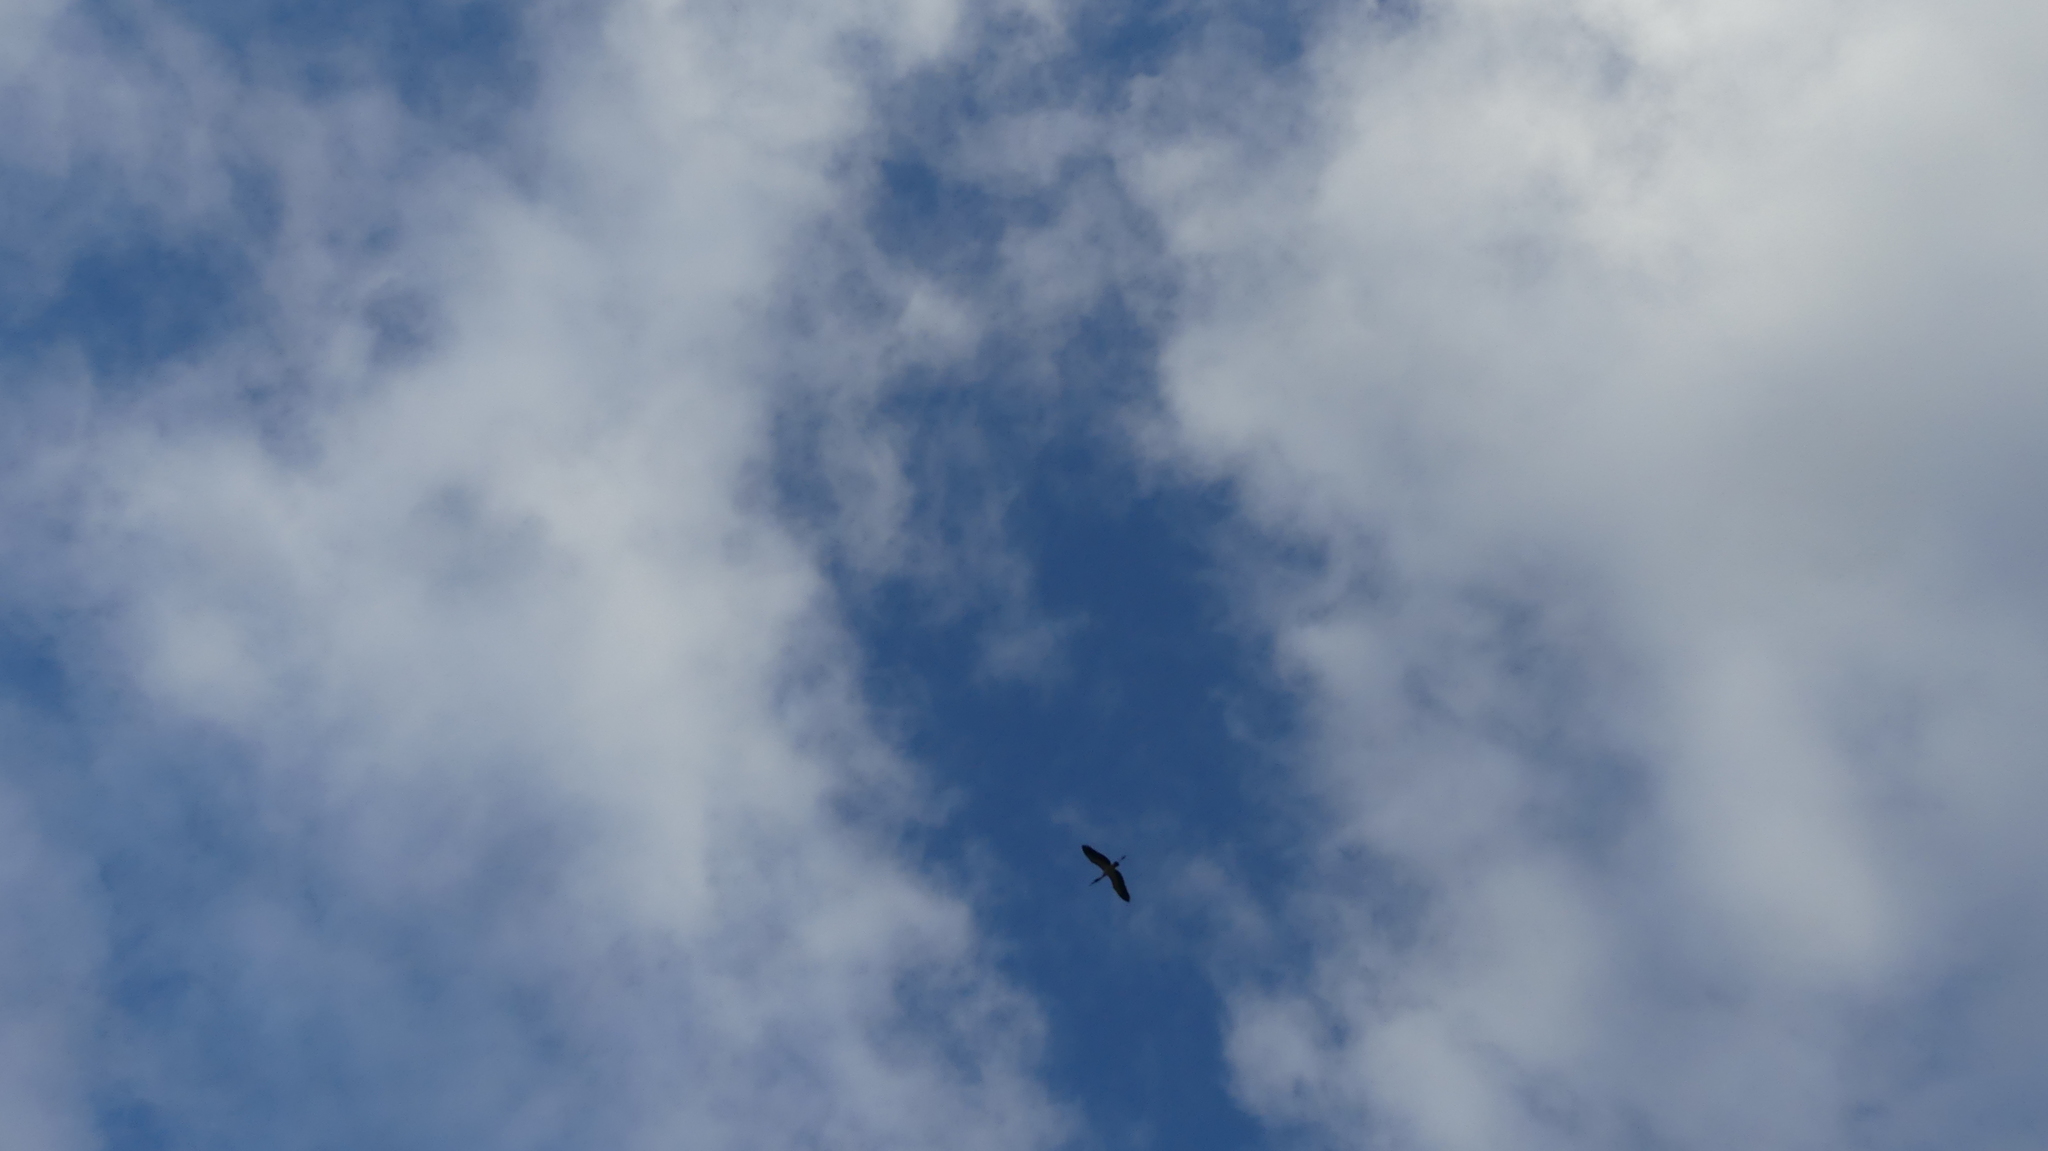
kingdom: Animalia
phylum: Chordata
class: Aves
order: Ciconiiformes
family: Ciconiidae
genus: Mycteria
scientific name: Mycteria americana
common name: Wood stork
